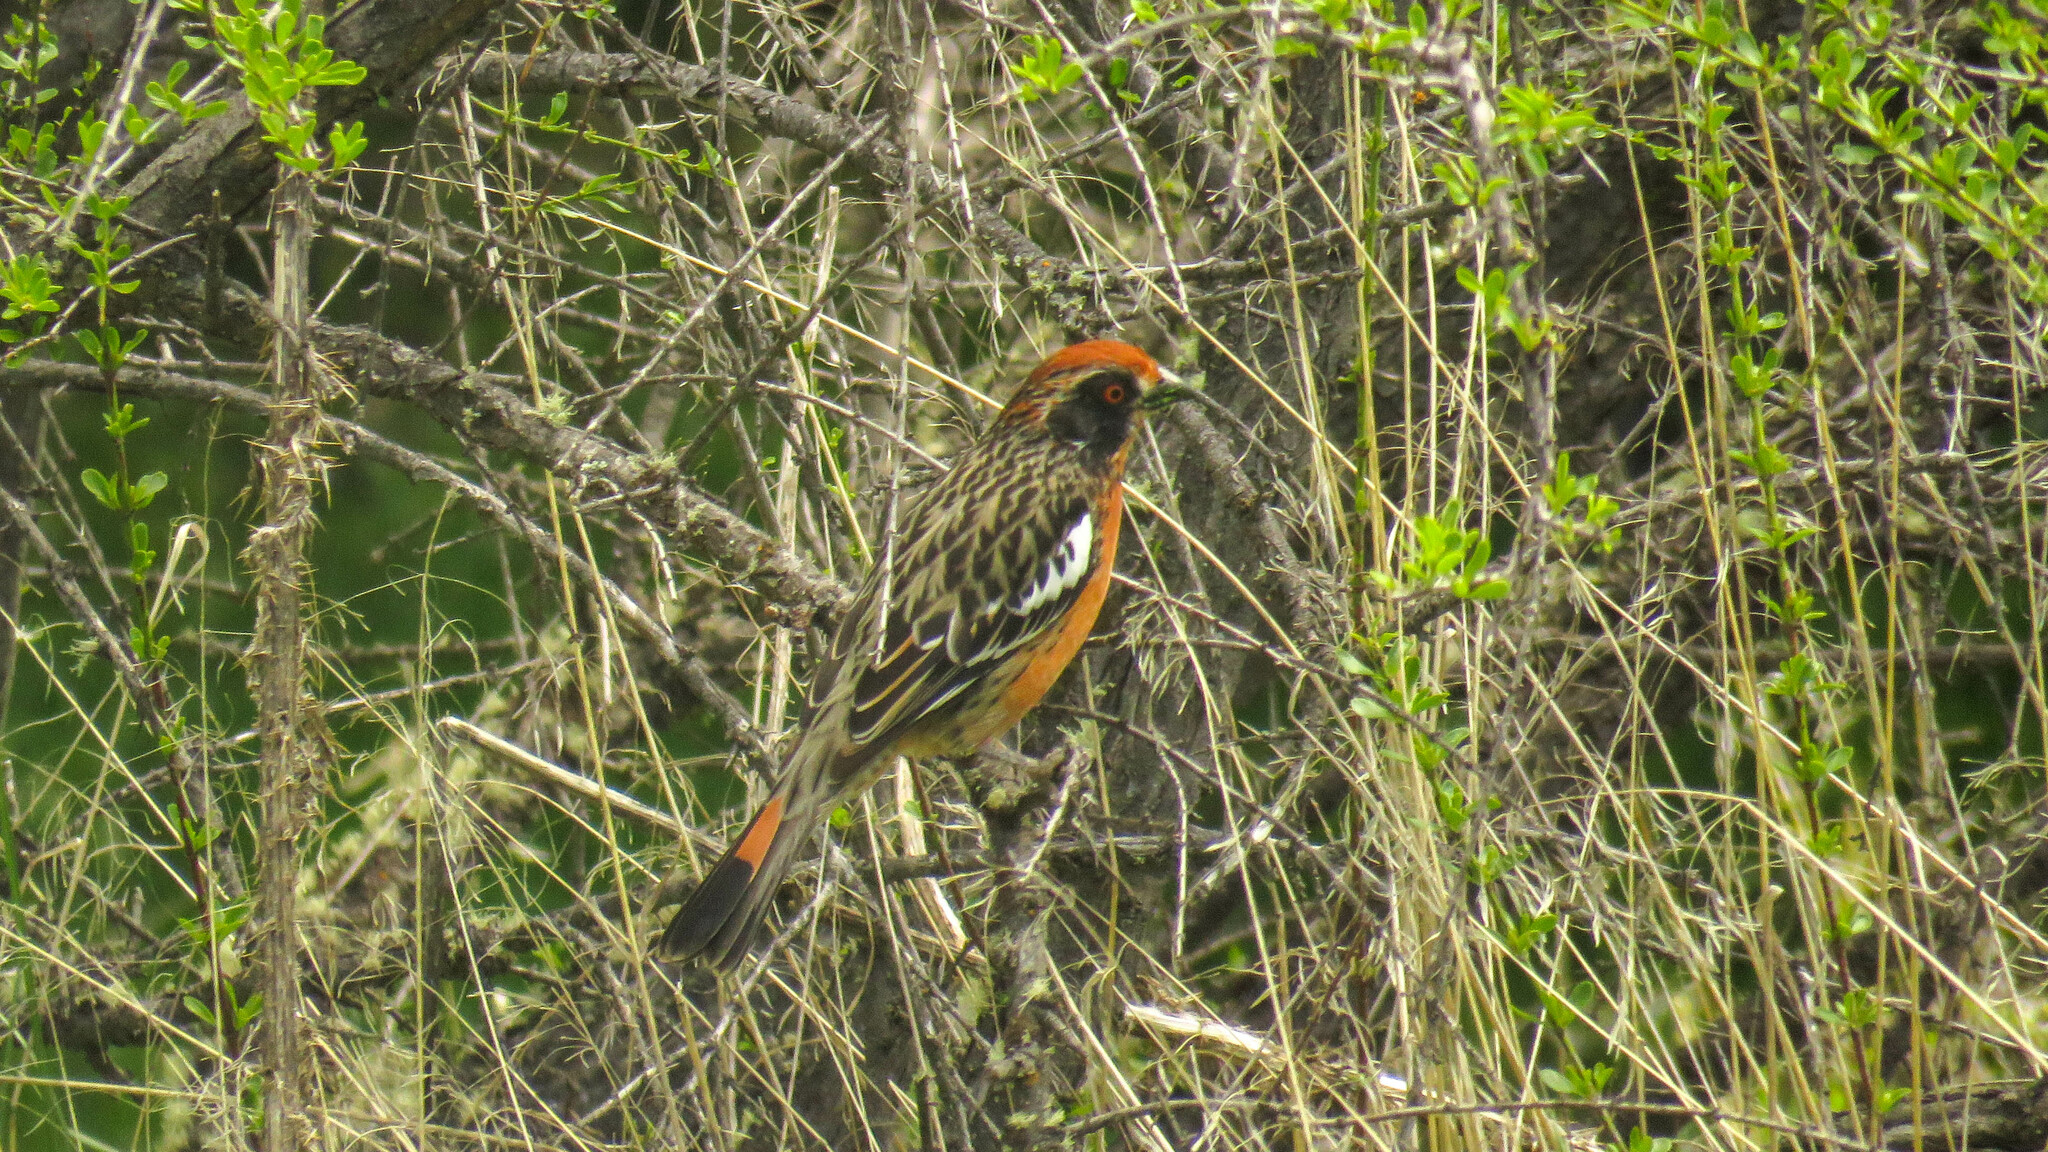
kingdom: Animalia
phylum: Chordata
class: Aves
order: Passeriformes
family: Cotingidae
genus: Phytotoma
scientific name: Phytotoma rara
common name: Rufous-tailed plantcutter
